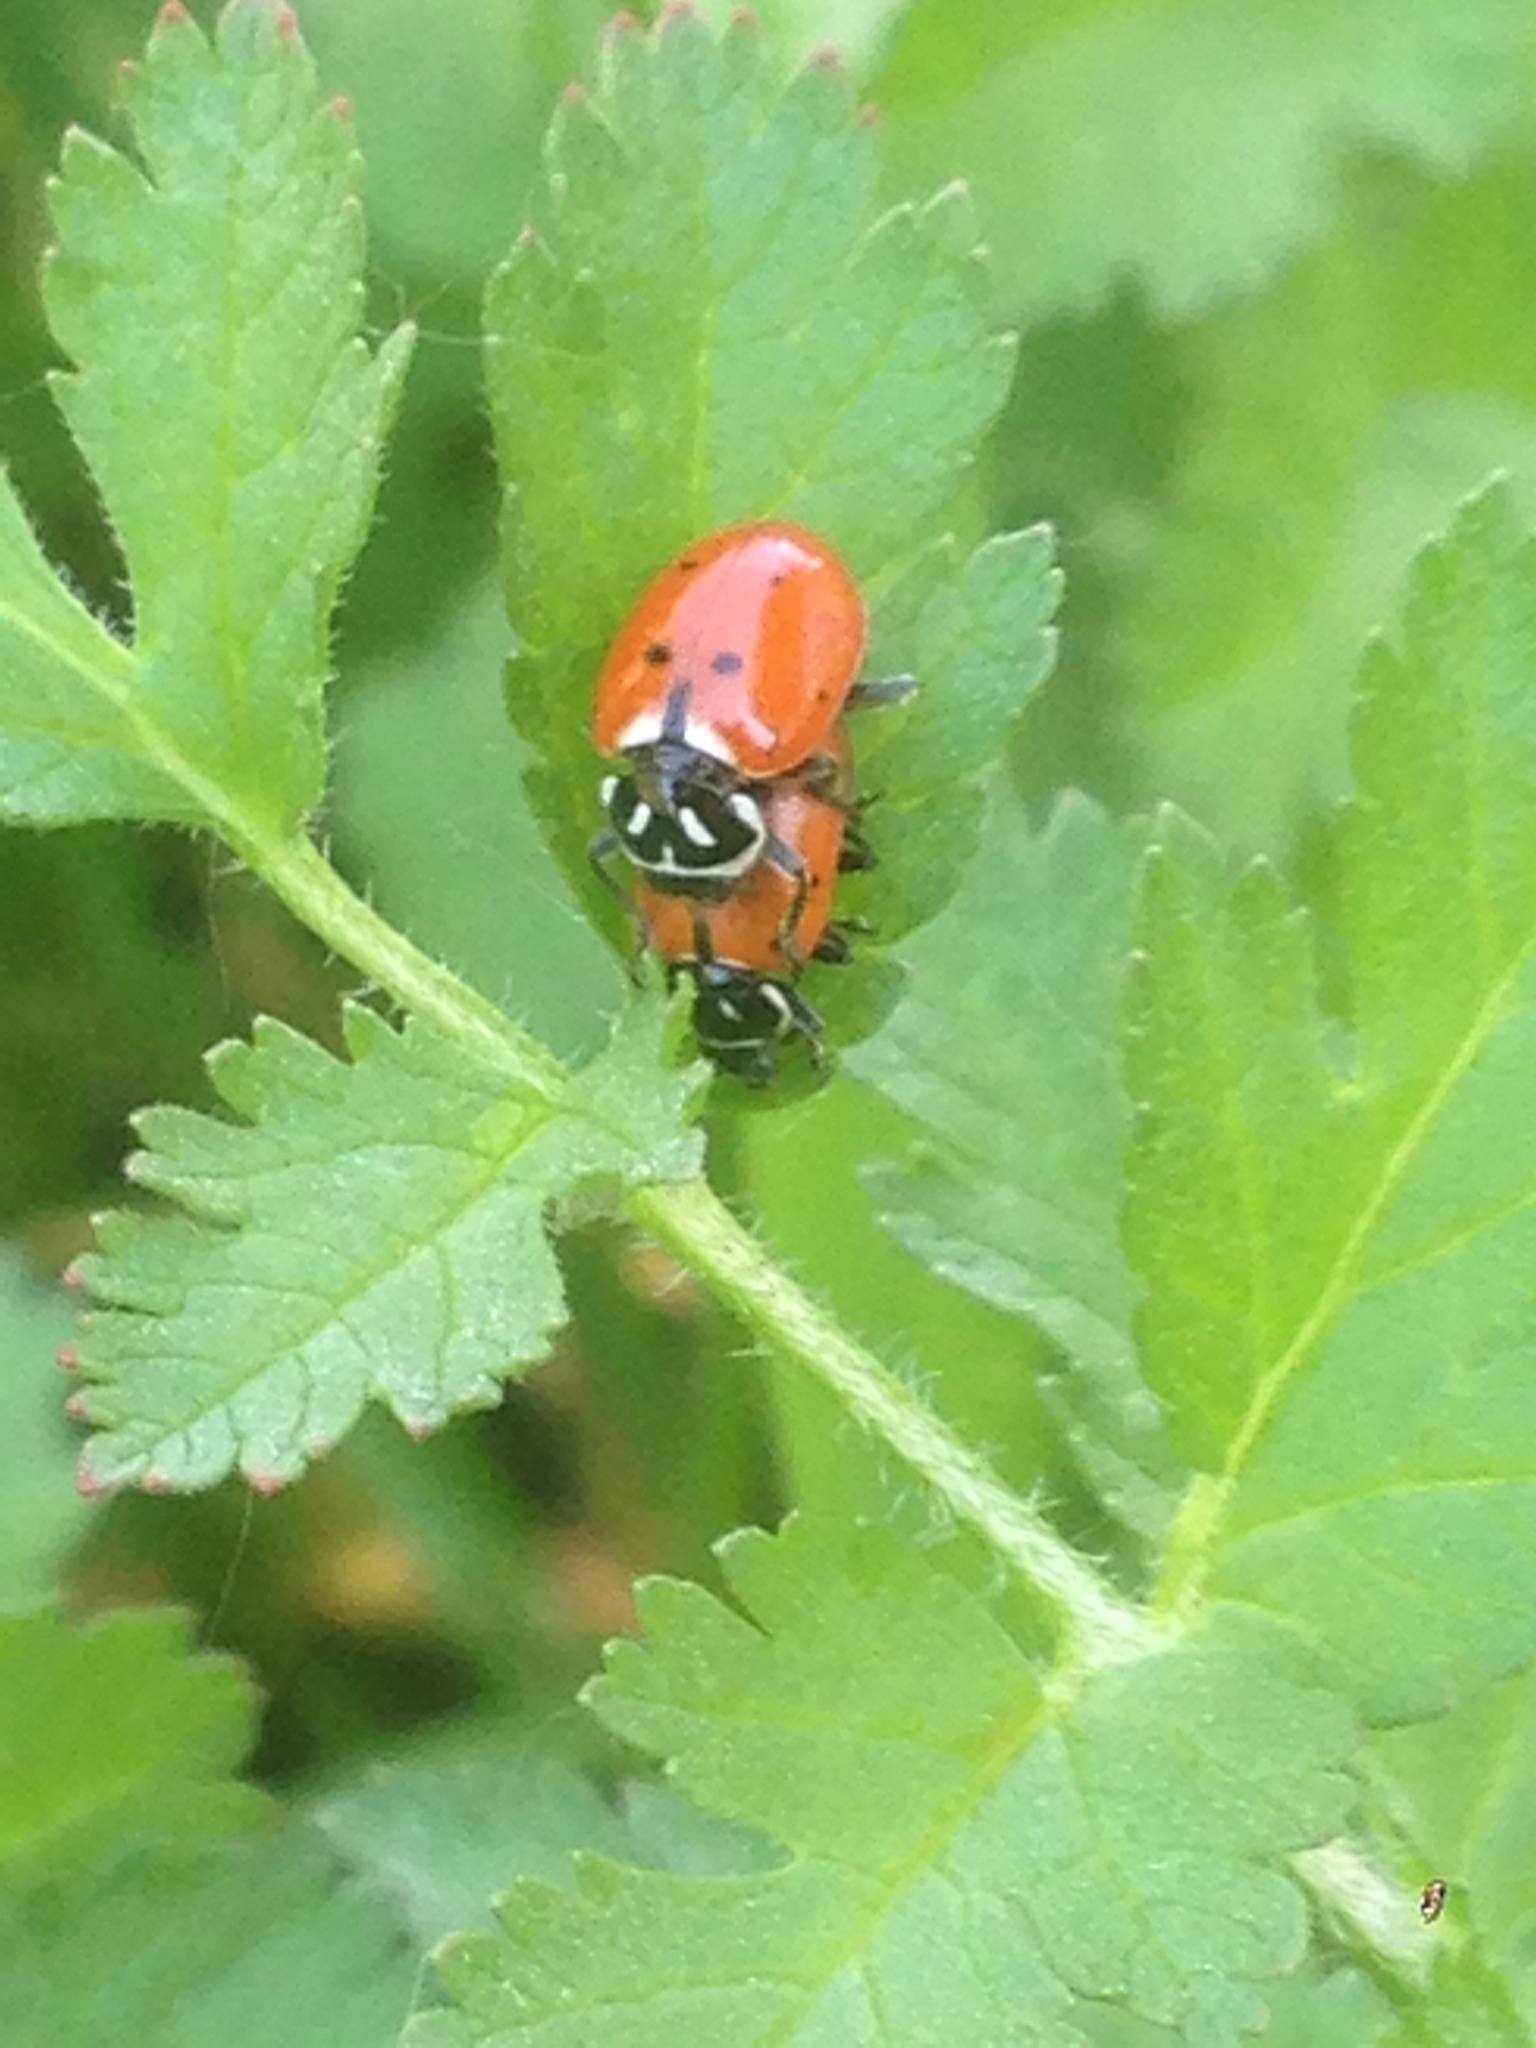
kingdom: Animalia
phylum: Arthropoda
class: Insecta
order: Coleoptera
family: Coccinellidae
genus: Hippodamia
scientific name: Hippodamia convergens
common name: Convergent lady beetle
